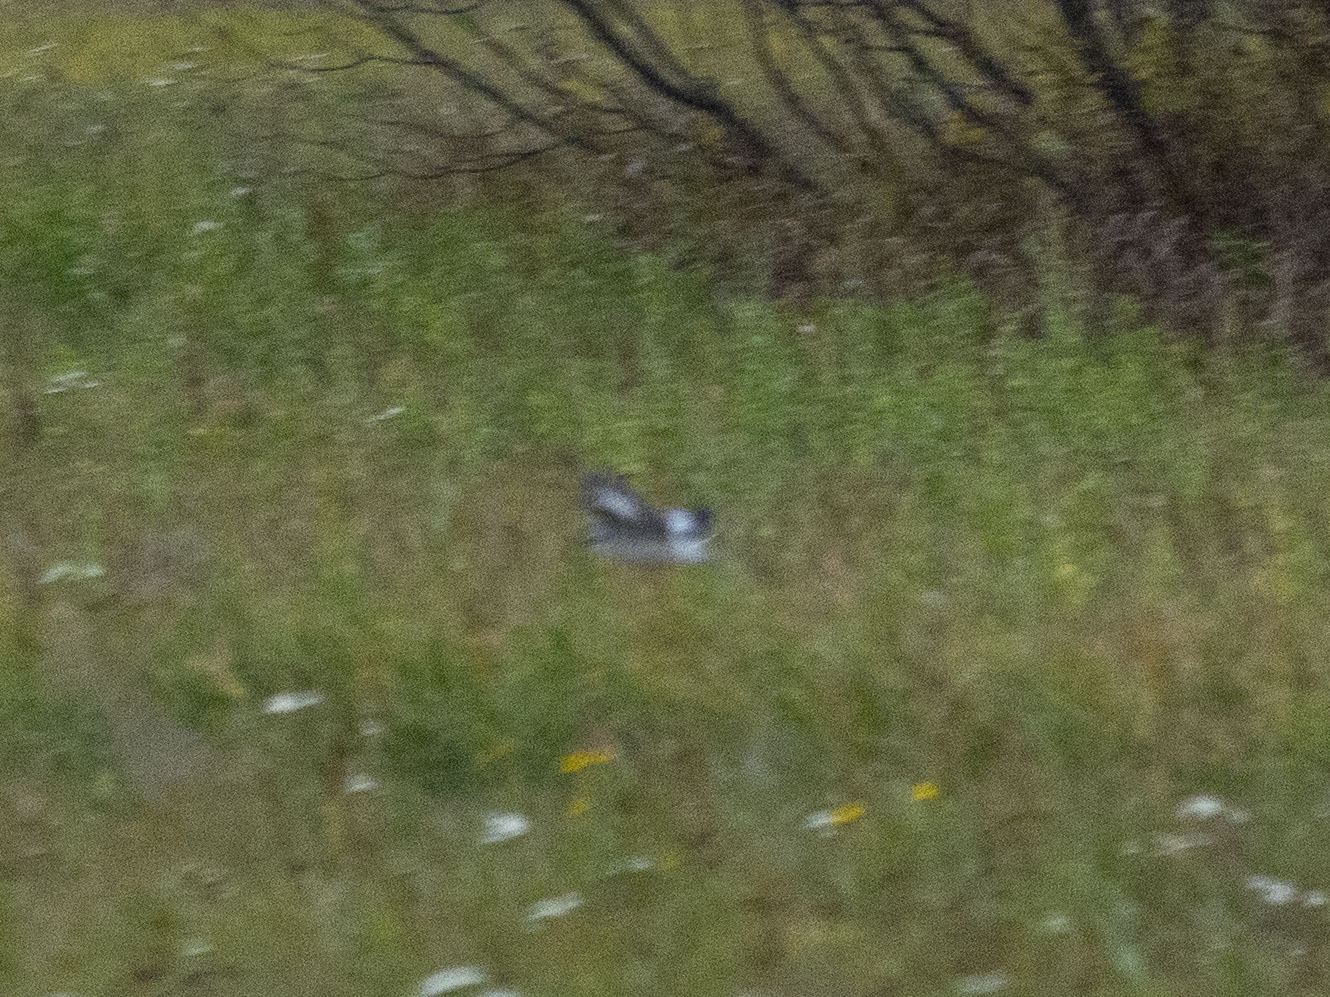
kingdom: Animalia
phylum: Chordata
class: Aves
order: Passeriformes
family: Laniidae
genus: Lanius
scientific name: Lanius excubitor
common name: Great grey shrike
